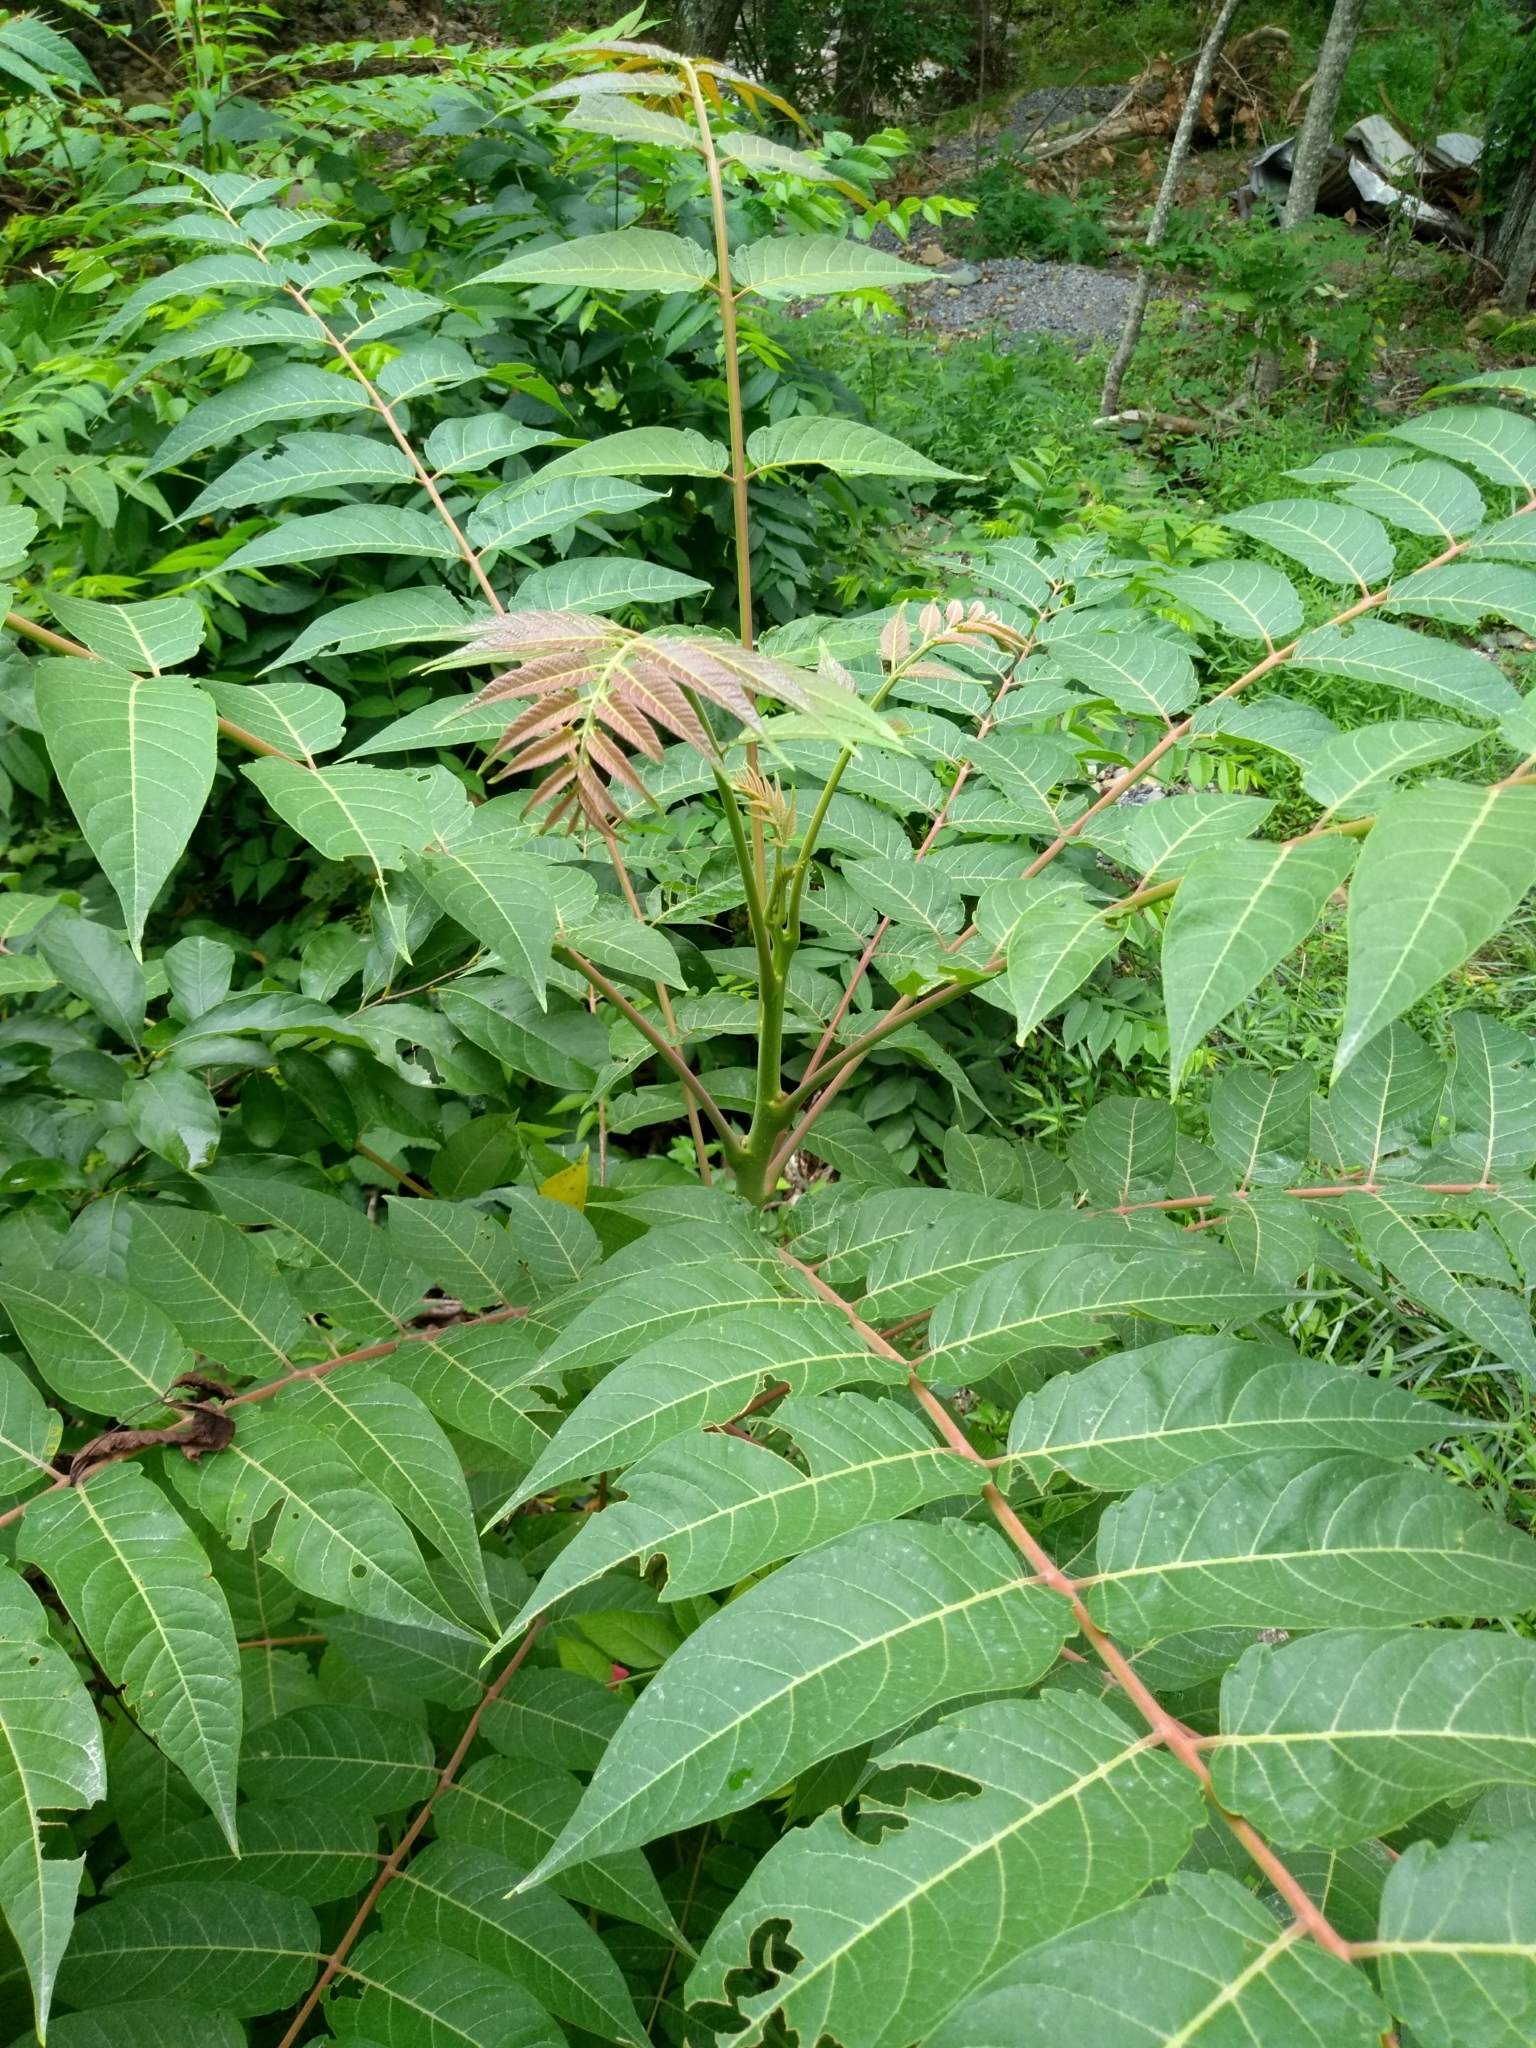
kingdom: Plantae
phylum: Tracheophyta
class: Magnoliopsida
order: Sapindales
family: Simaroubaceae
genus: Ailanthus
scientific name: Ailanthus altissima
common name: Tree-of-heaven
